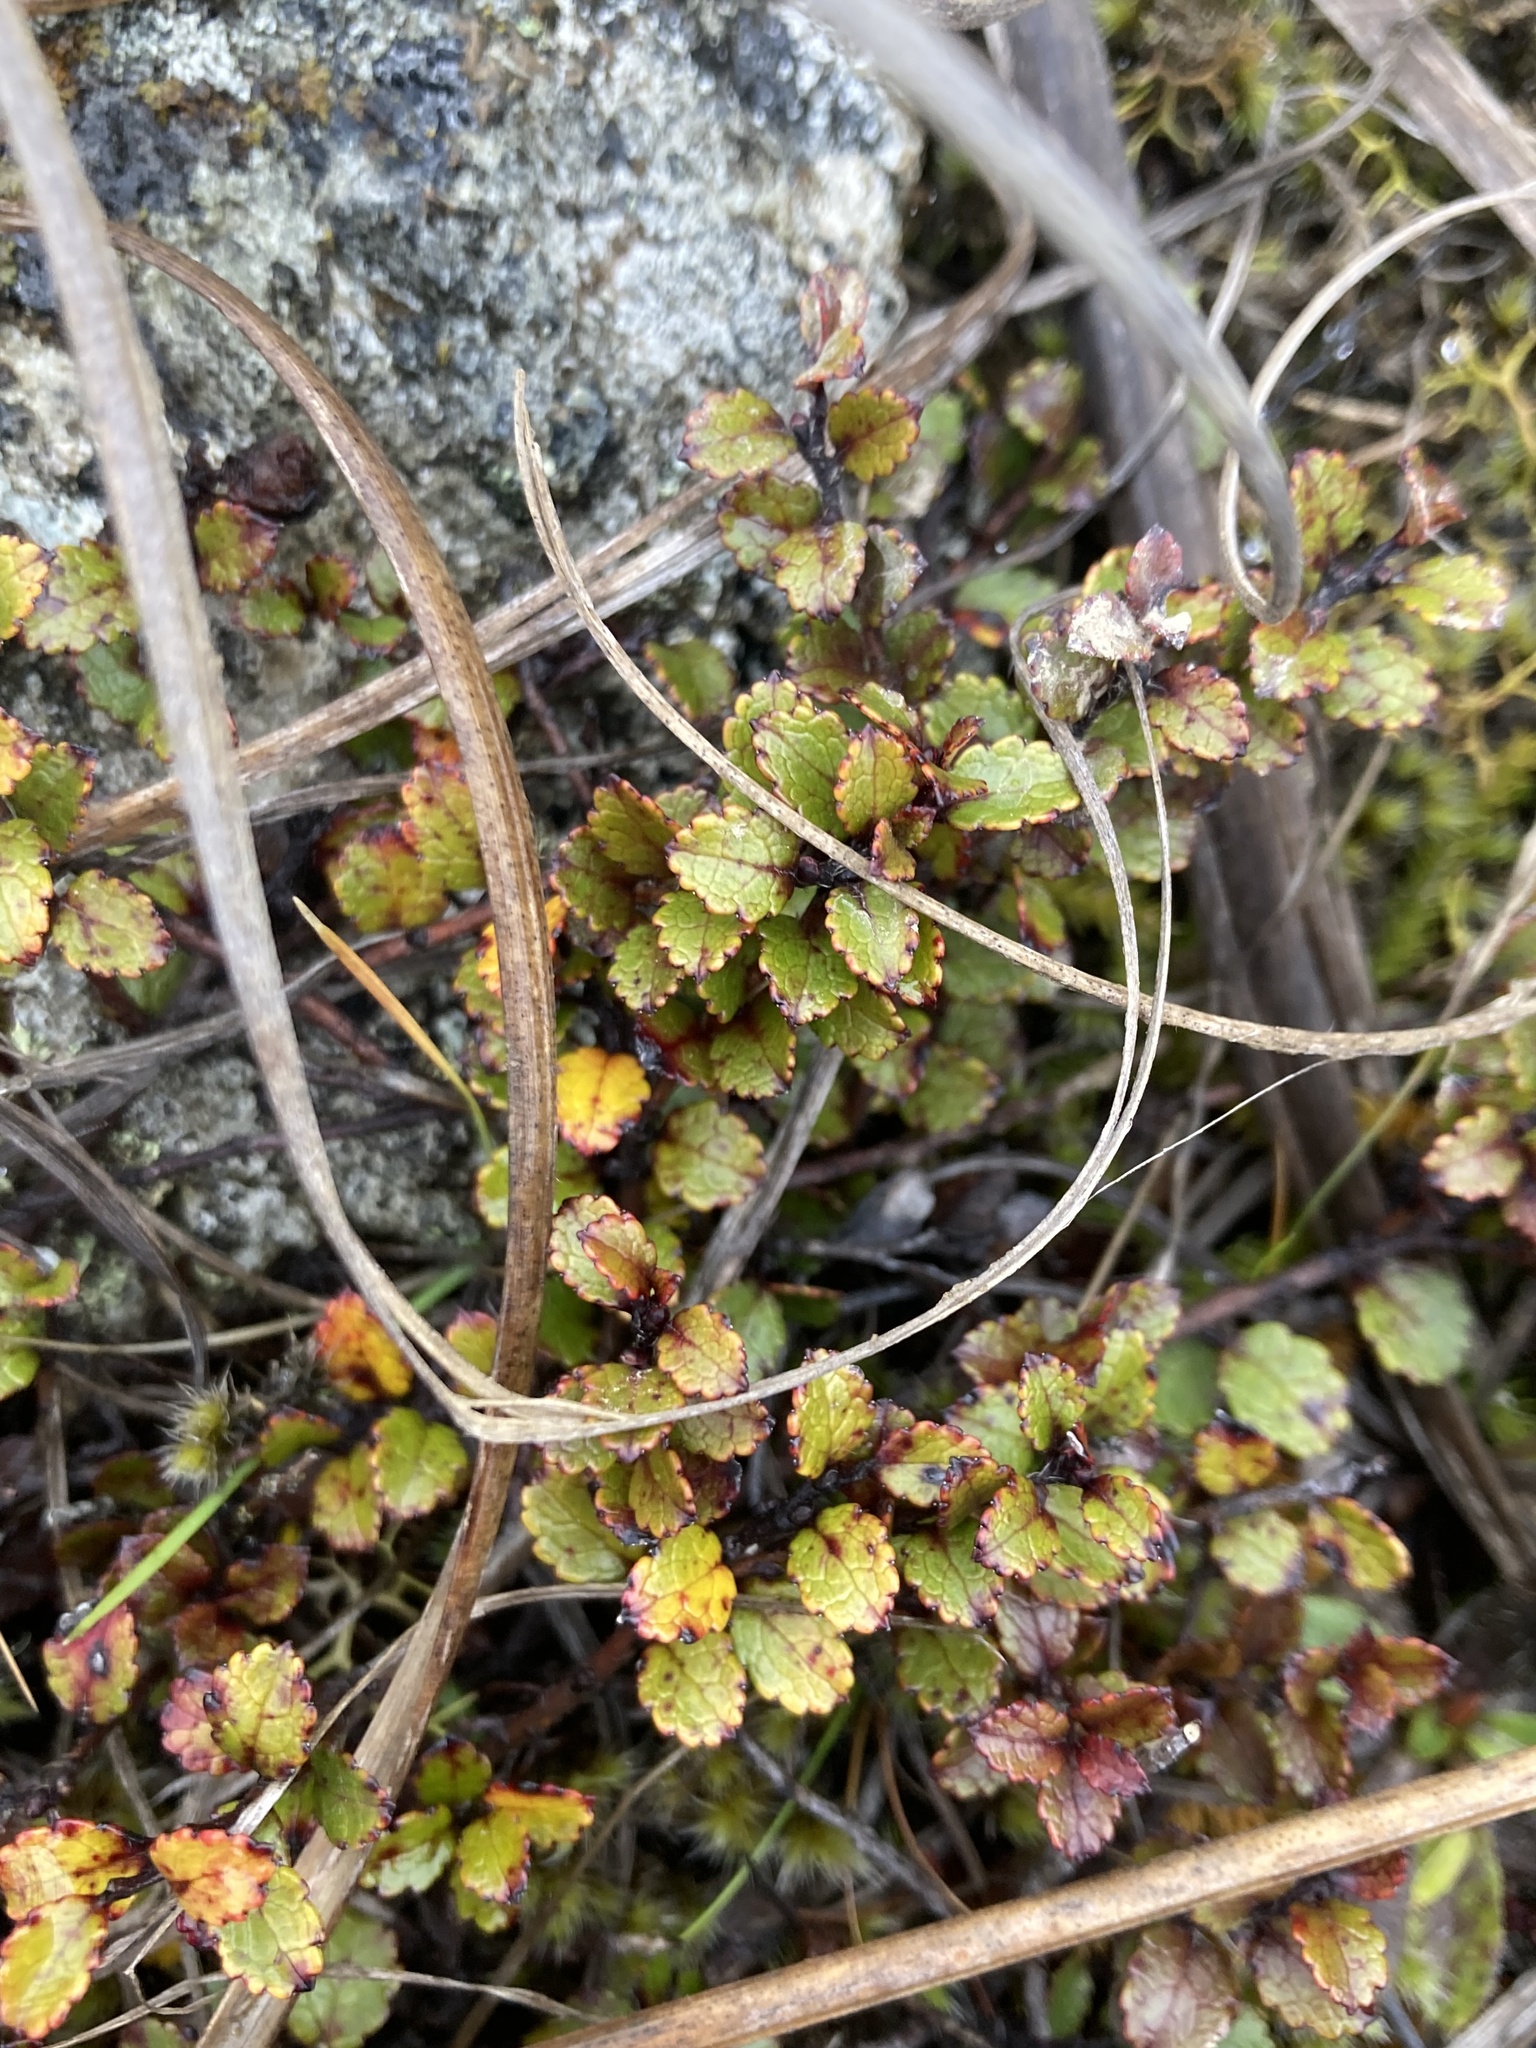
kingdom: Plantae
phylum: Tracheophyta
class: Magnoliopsida
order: Ericales
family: Ericaceae
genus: Gaultheria
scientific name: Gaultheria depressa
